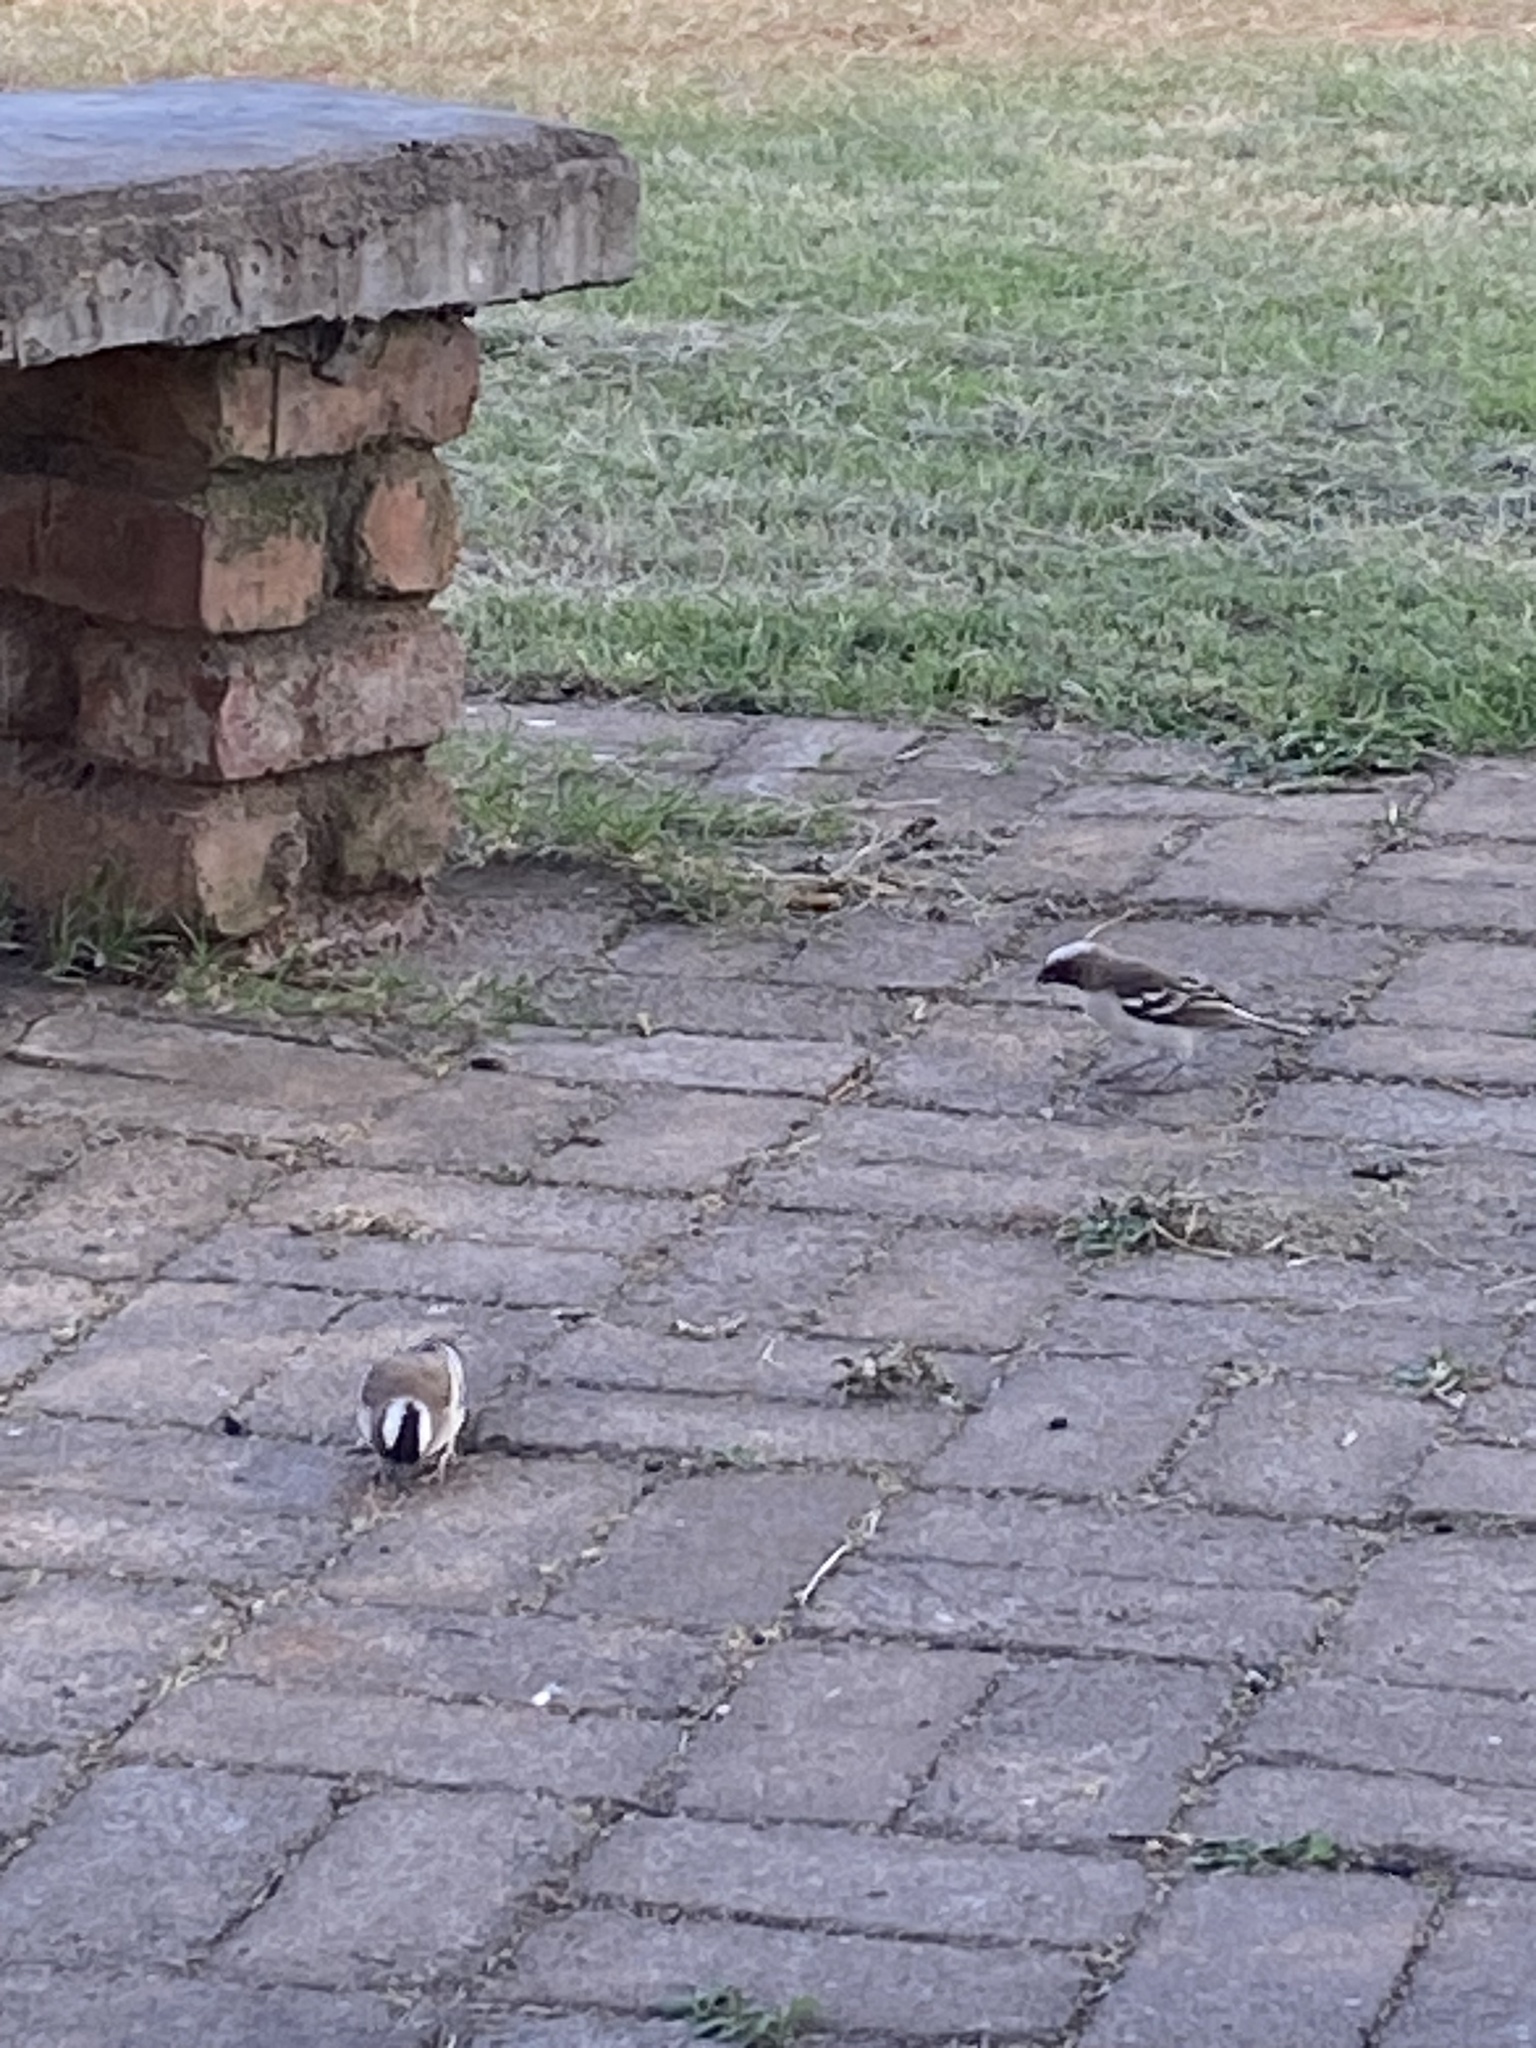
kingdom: Animalia
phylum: Chordata
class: Aves
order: Passeriformes
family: Passeridae
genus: Plocepasser
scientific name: Plocepasser mahali
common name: White-browed sparrow-weaver
